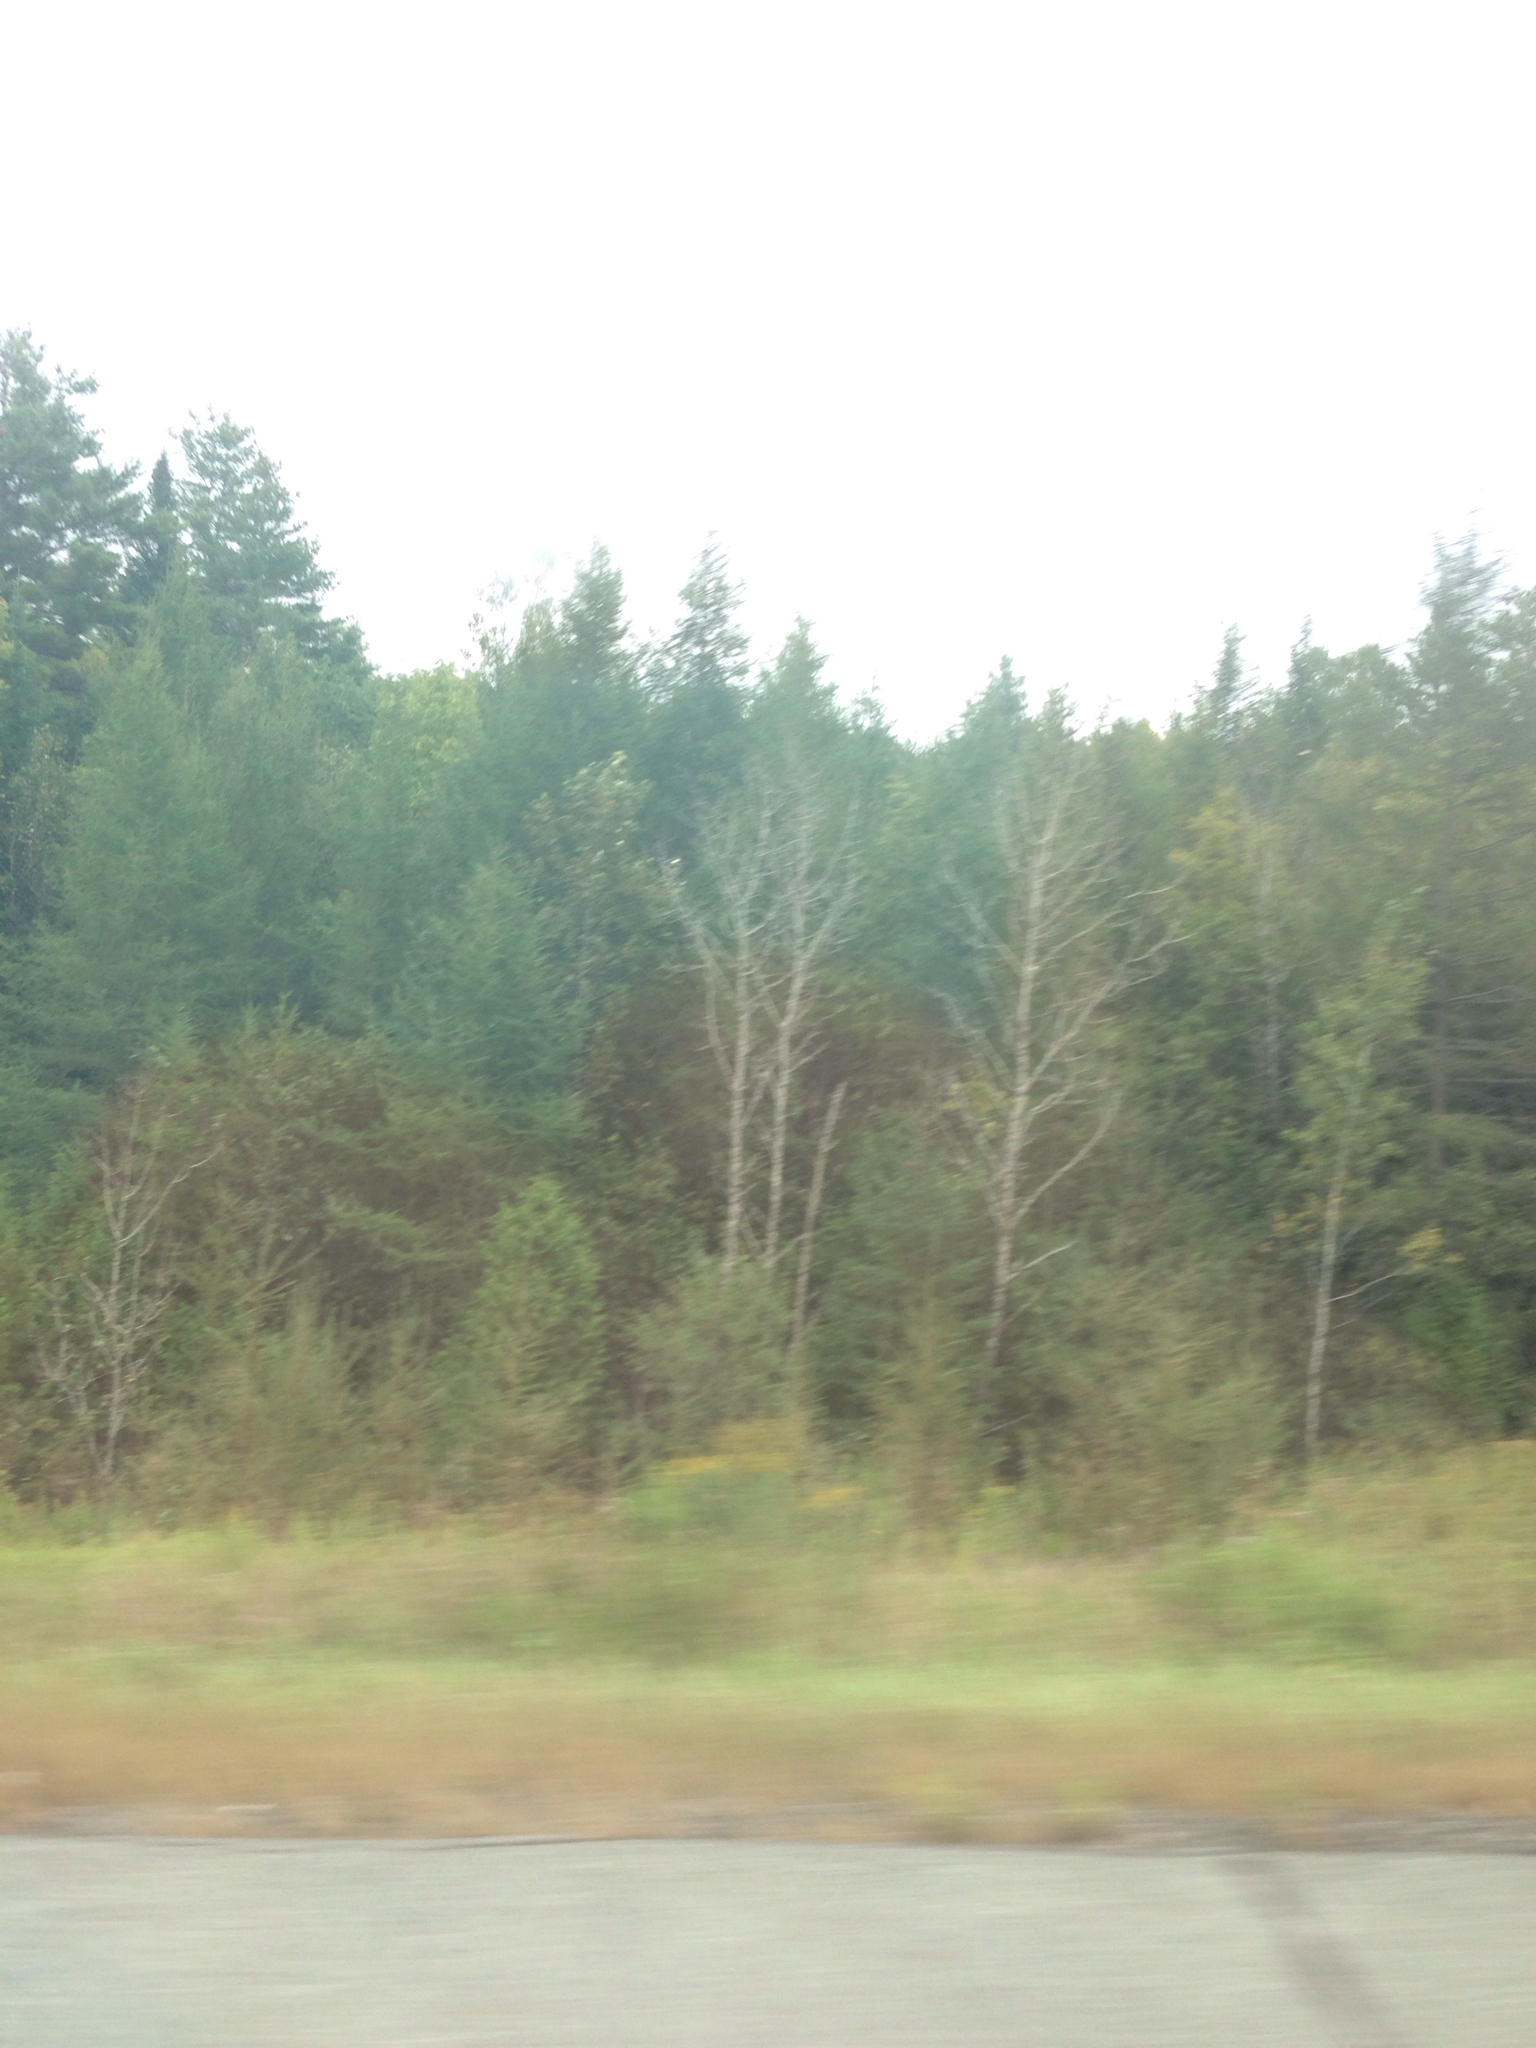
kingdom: Plantae
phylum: Tracheophyta
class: Pinopsida
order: Pinales
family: Pinaceae
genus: Larix
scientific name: Larix laricina
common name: American larch
